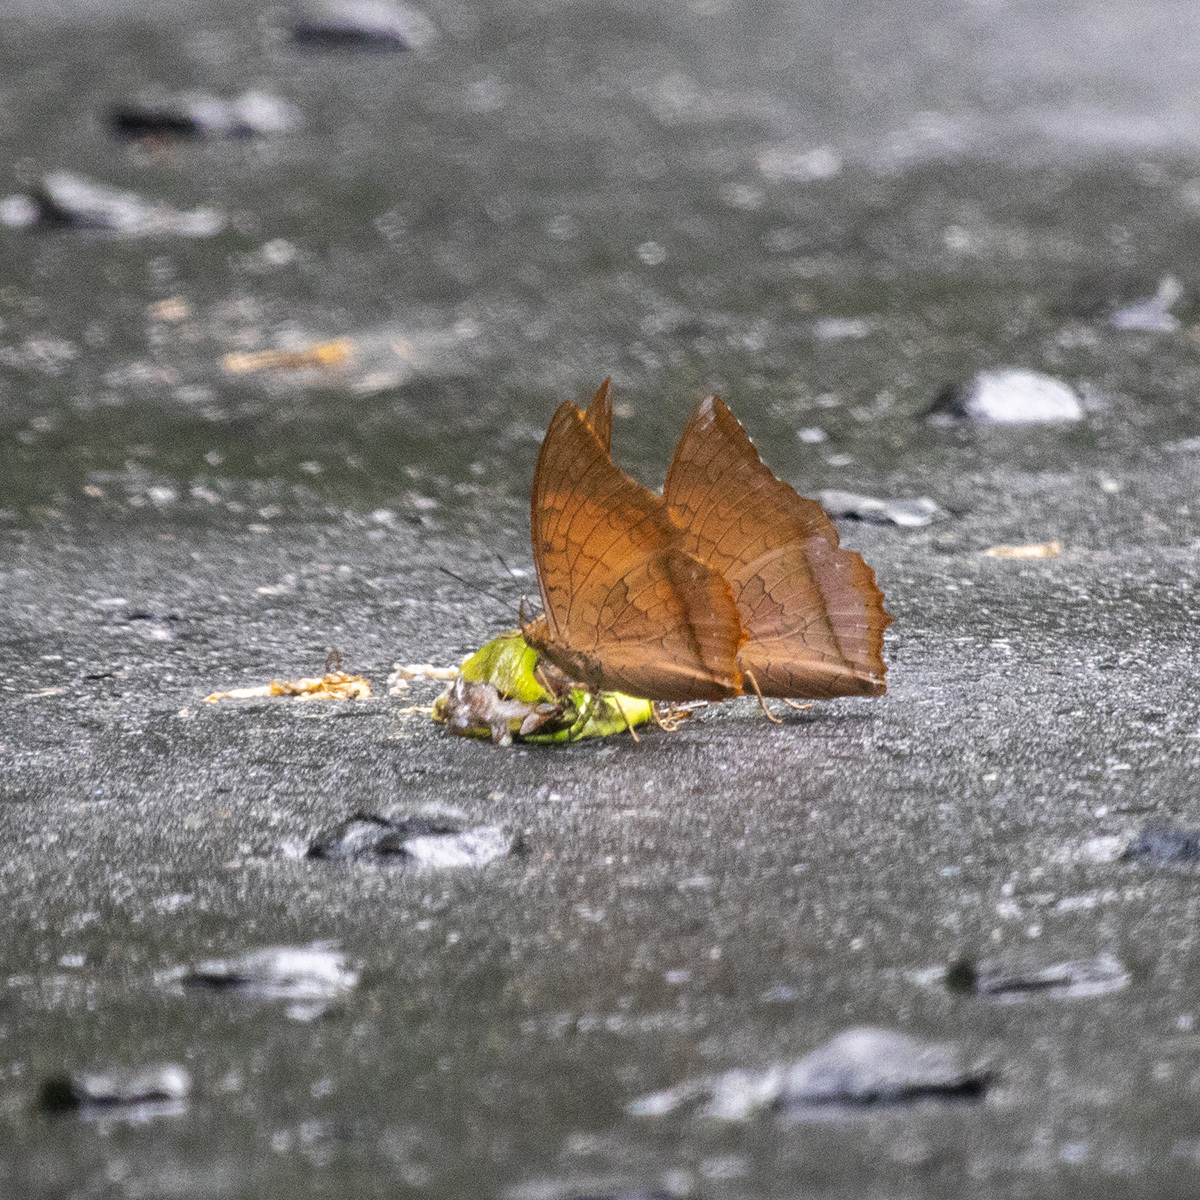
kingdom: Animalia
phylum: Arthropoda
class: Insecta
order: Lepidoptera
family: Nymphalidae
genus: Charaxes
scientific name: Charaxes marmax
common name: Yellow rajah
